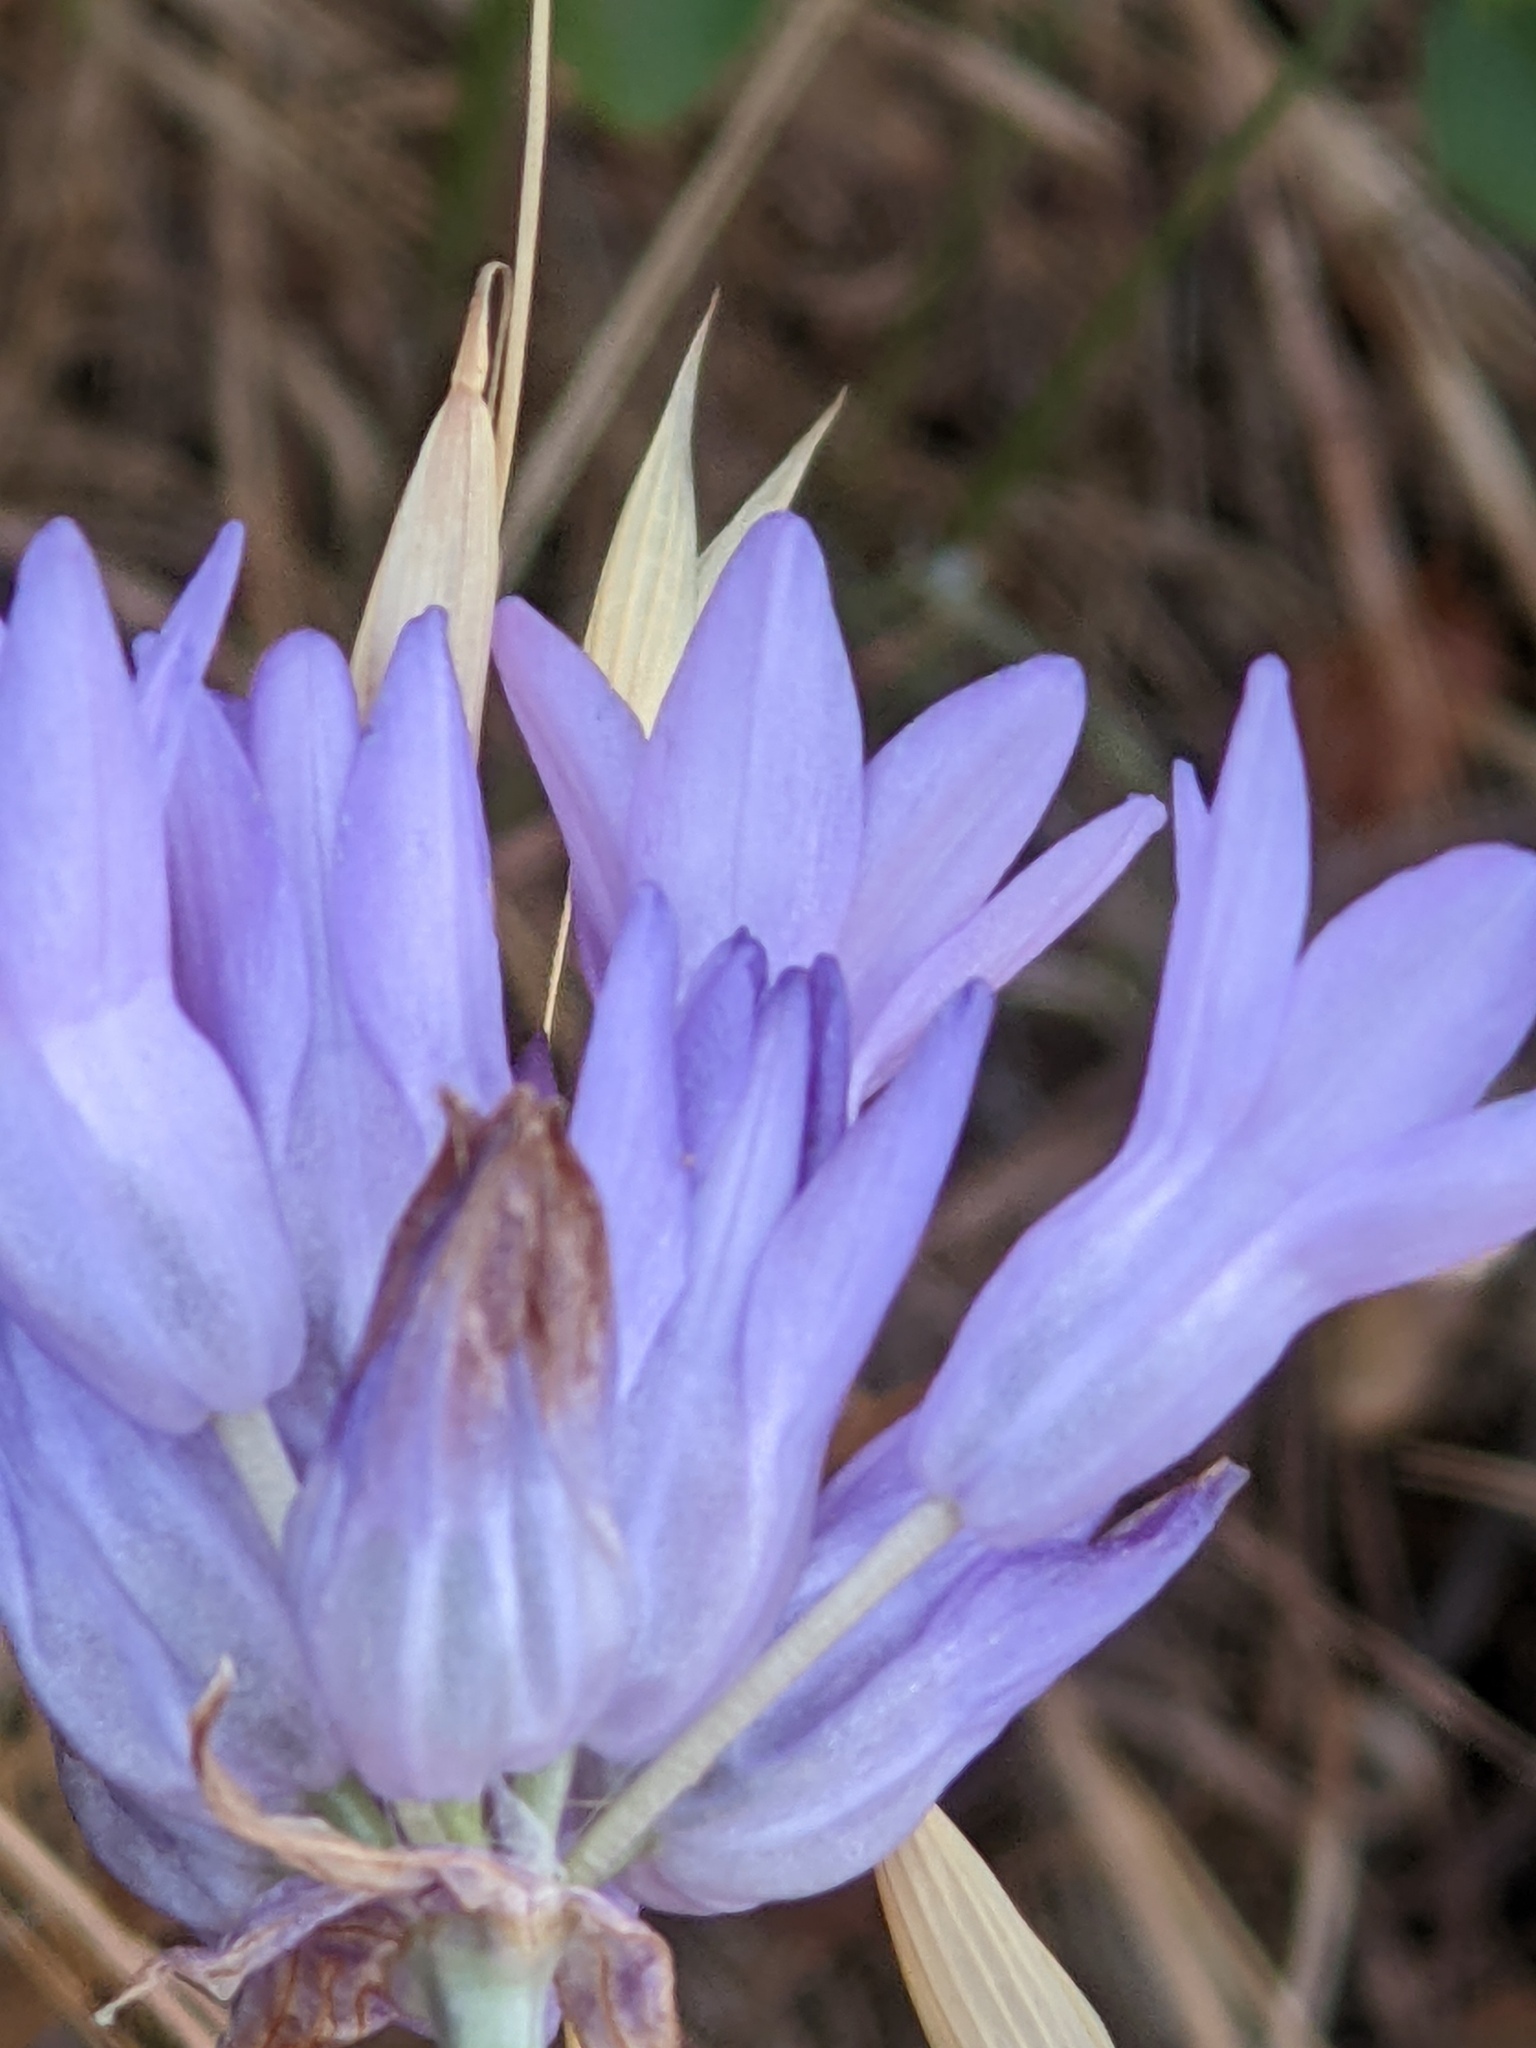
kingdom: Plantae
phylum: Tracheophyta
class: Liliopsida
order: Asparagales
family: Asparagaceae
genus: Dipterostemon
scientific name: Dipterostemon capitatus
